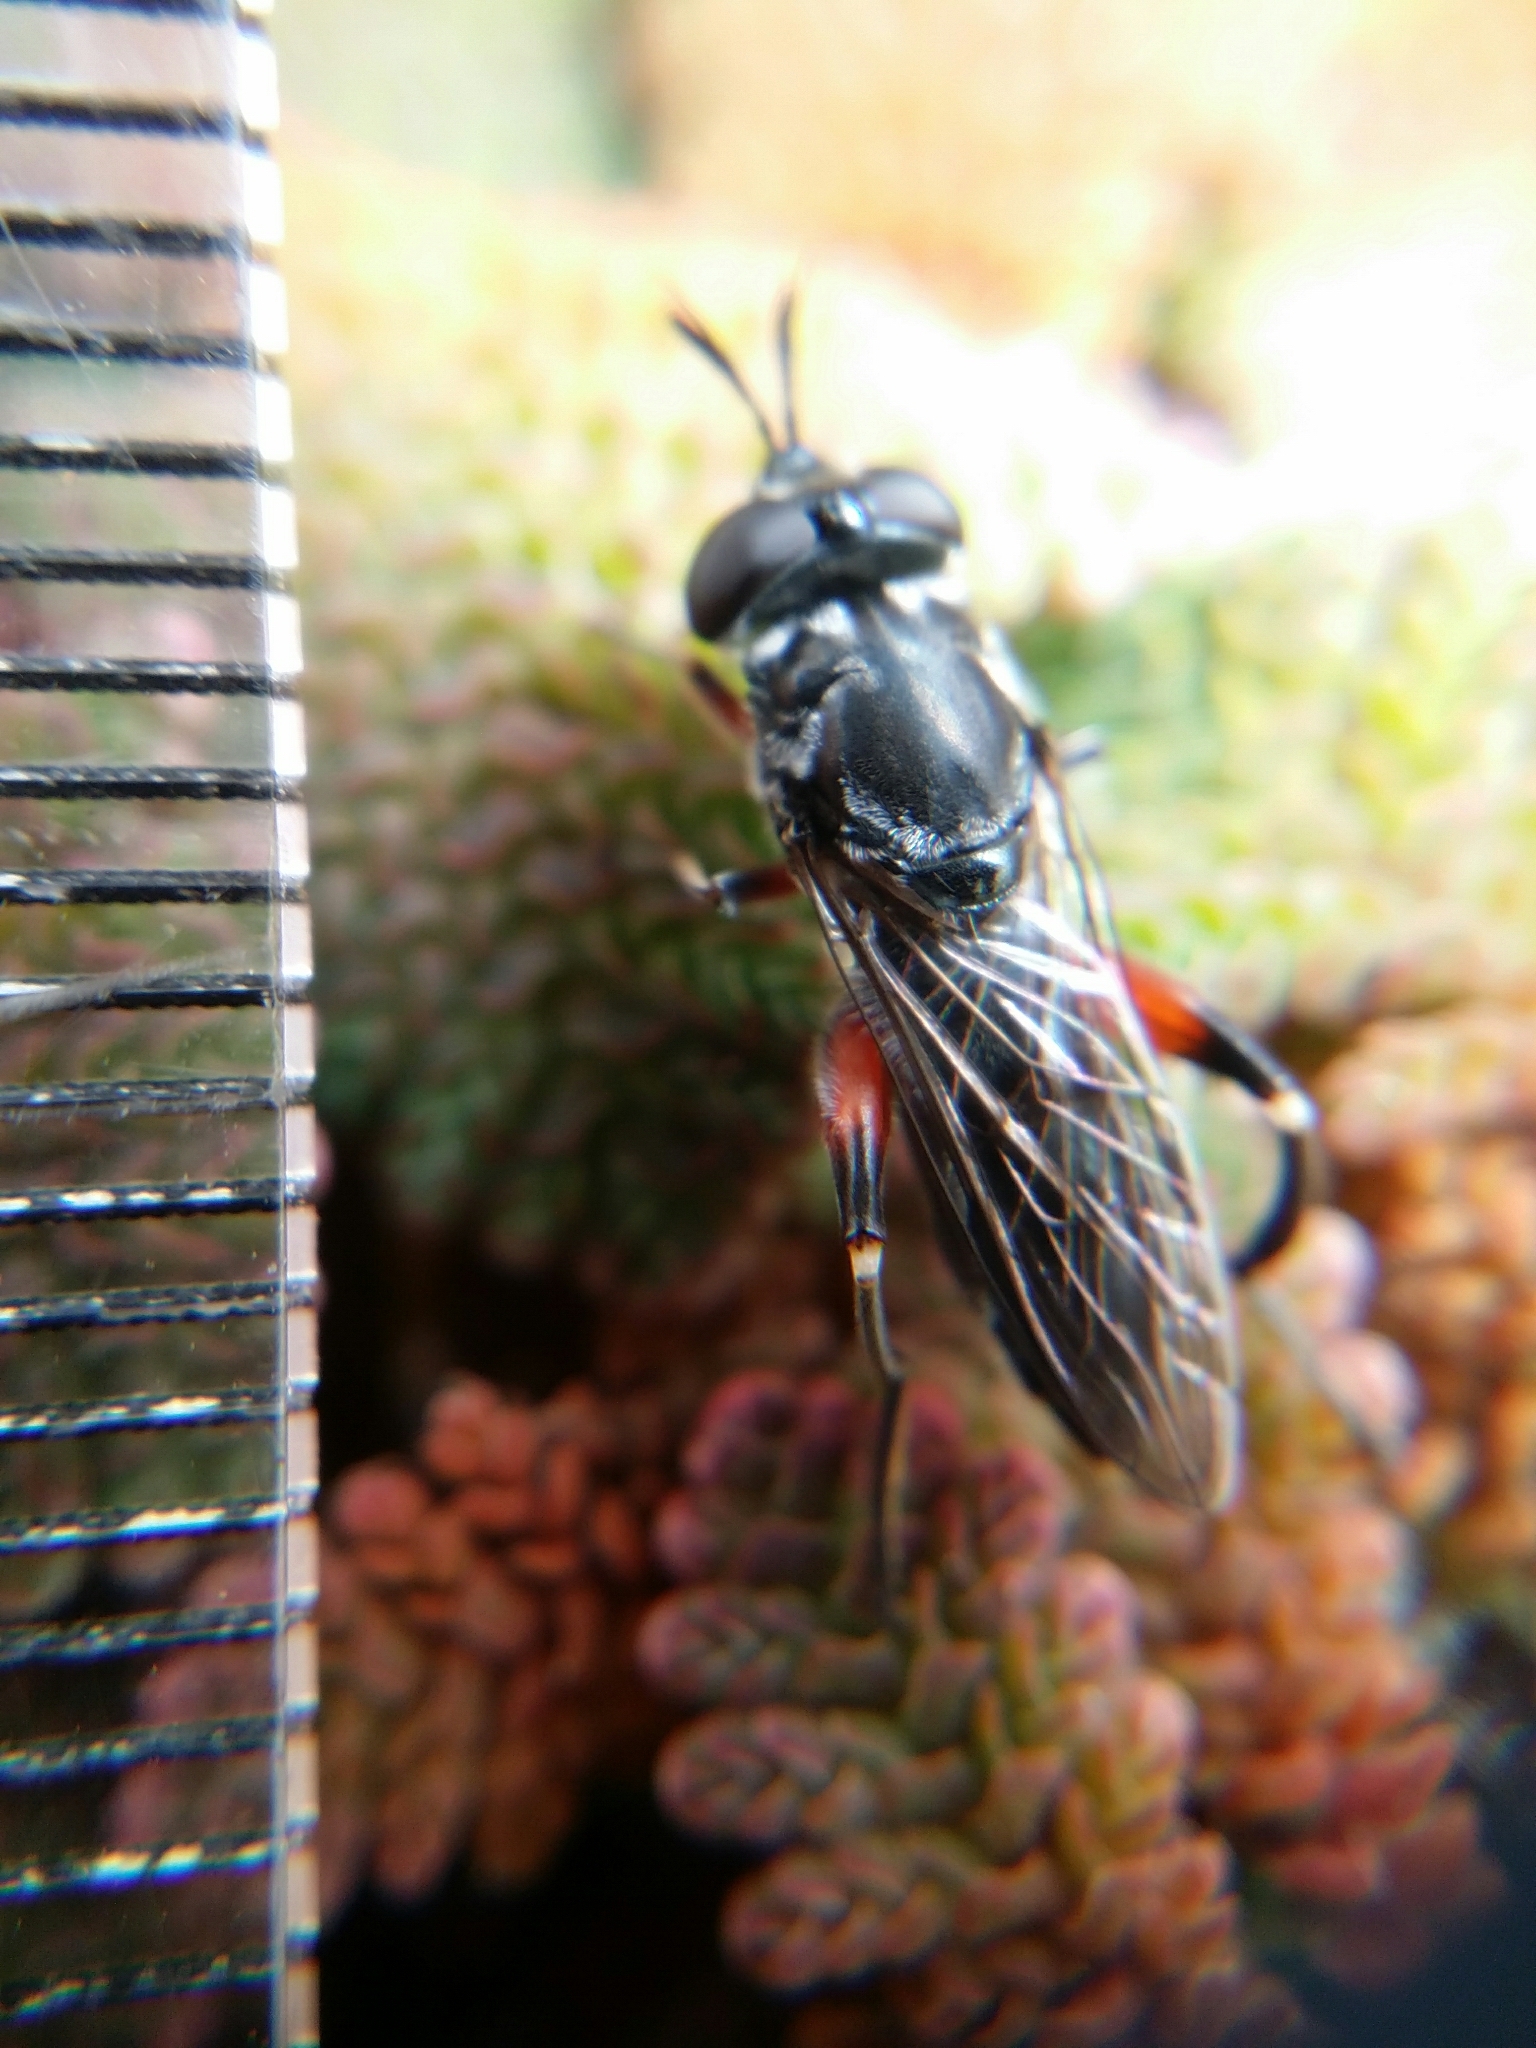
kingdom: Animalia
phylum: Arthropoda
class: Insecta
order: Diptera
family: Syrphidae
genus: Chalcosyrphus
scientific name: Chalcosyrphus elongatus
